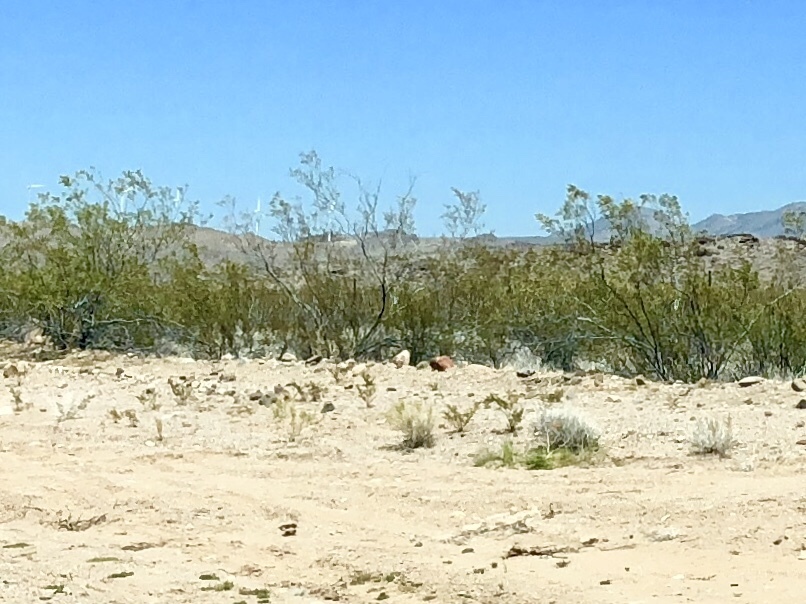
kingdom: Plantae
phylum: Tracheophyta
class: Magnoliopsida
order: Zygophyllales
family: Zygophyllaceae
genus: Larrea
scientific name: Larrea tridentata
